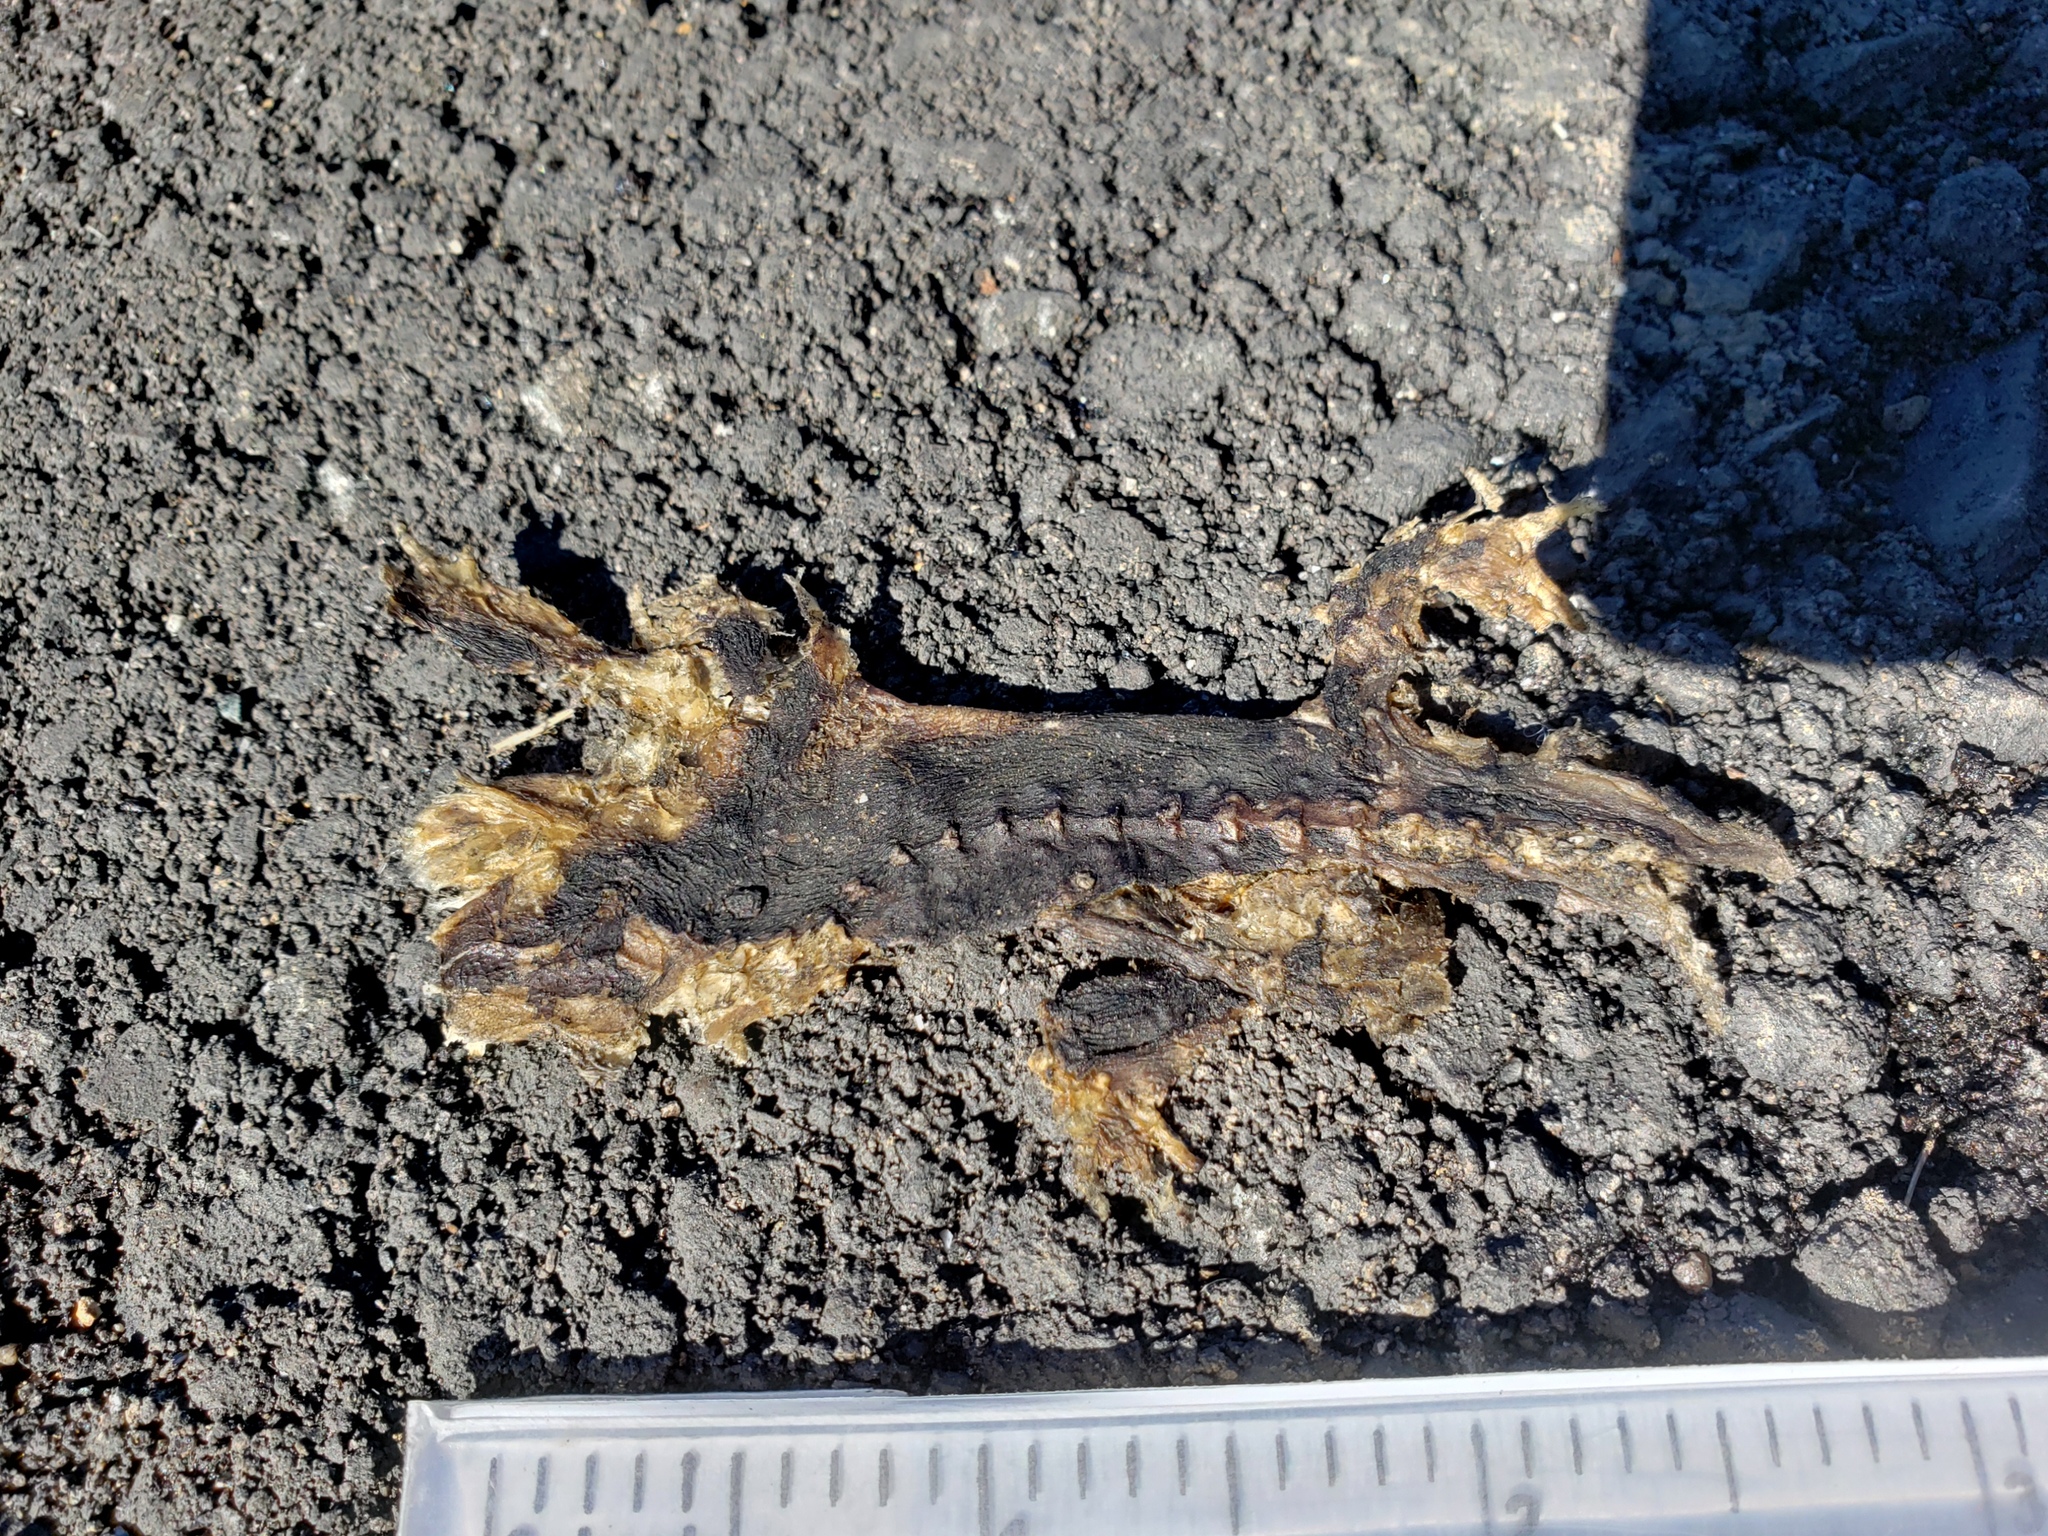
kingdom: Animalia
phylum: Chordata
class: Amphibia
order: Caudata
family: Salamandridae
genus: Taricha
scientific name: Taricha
